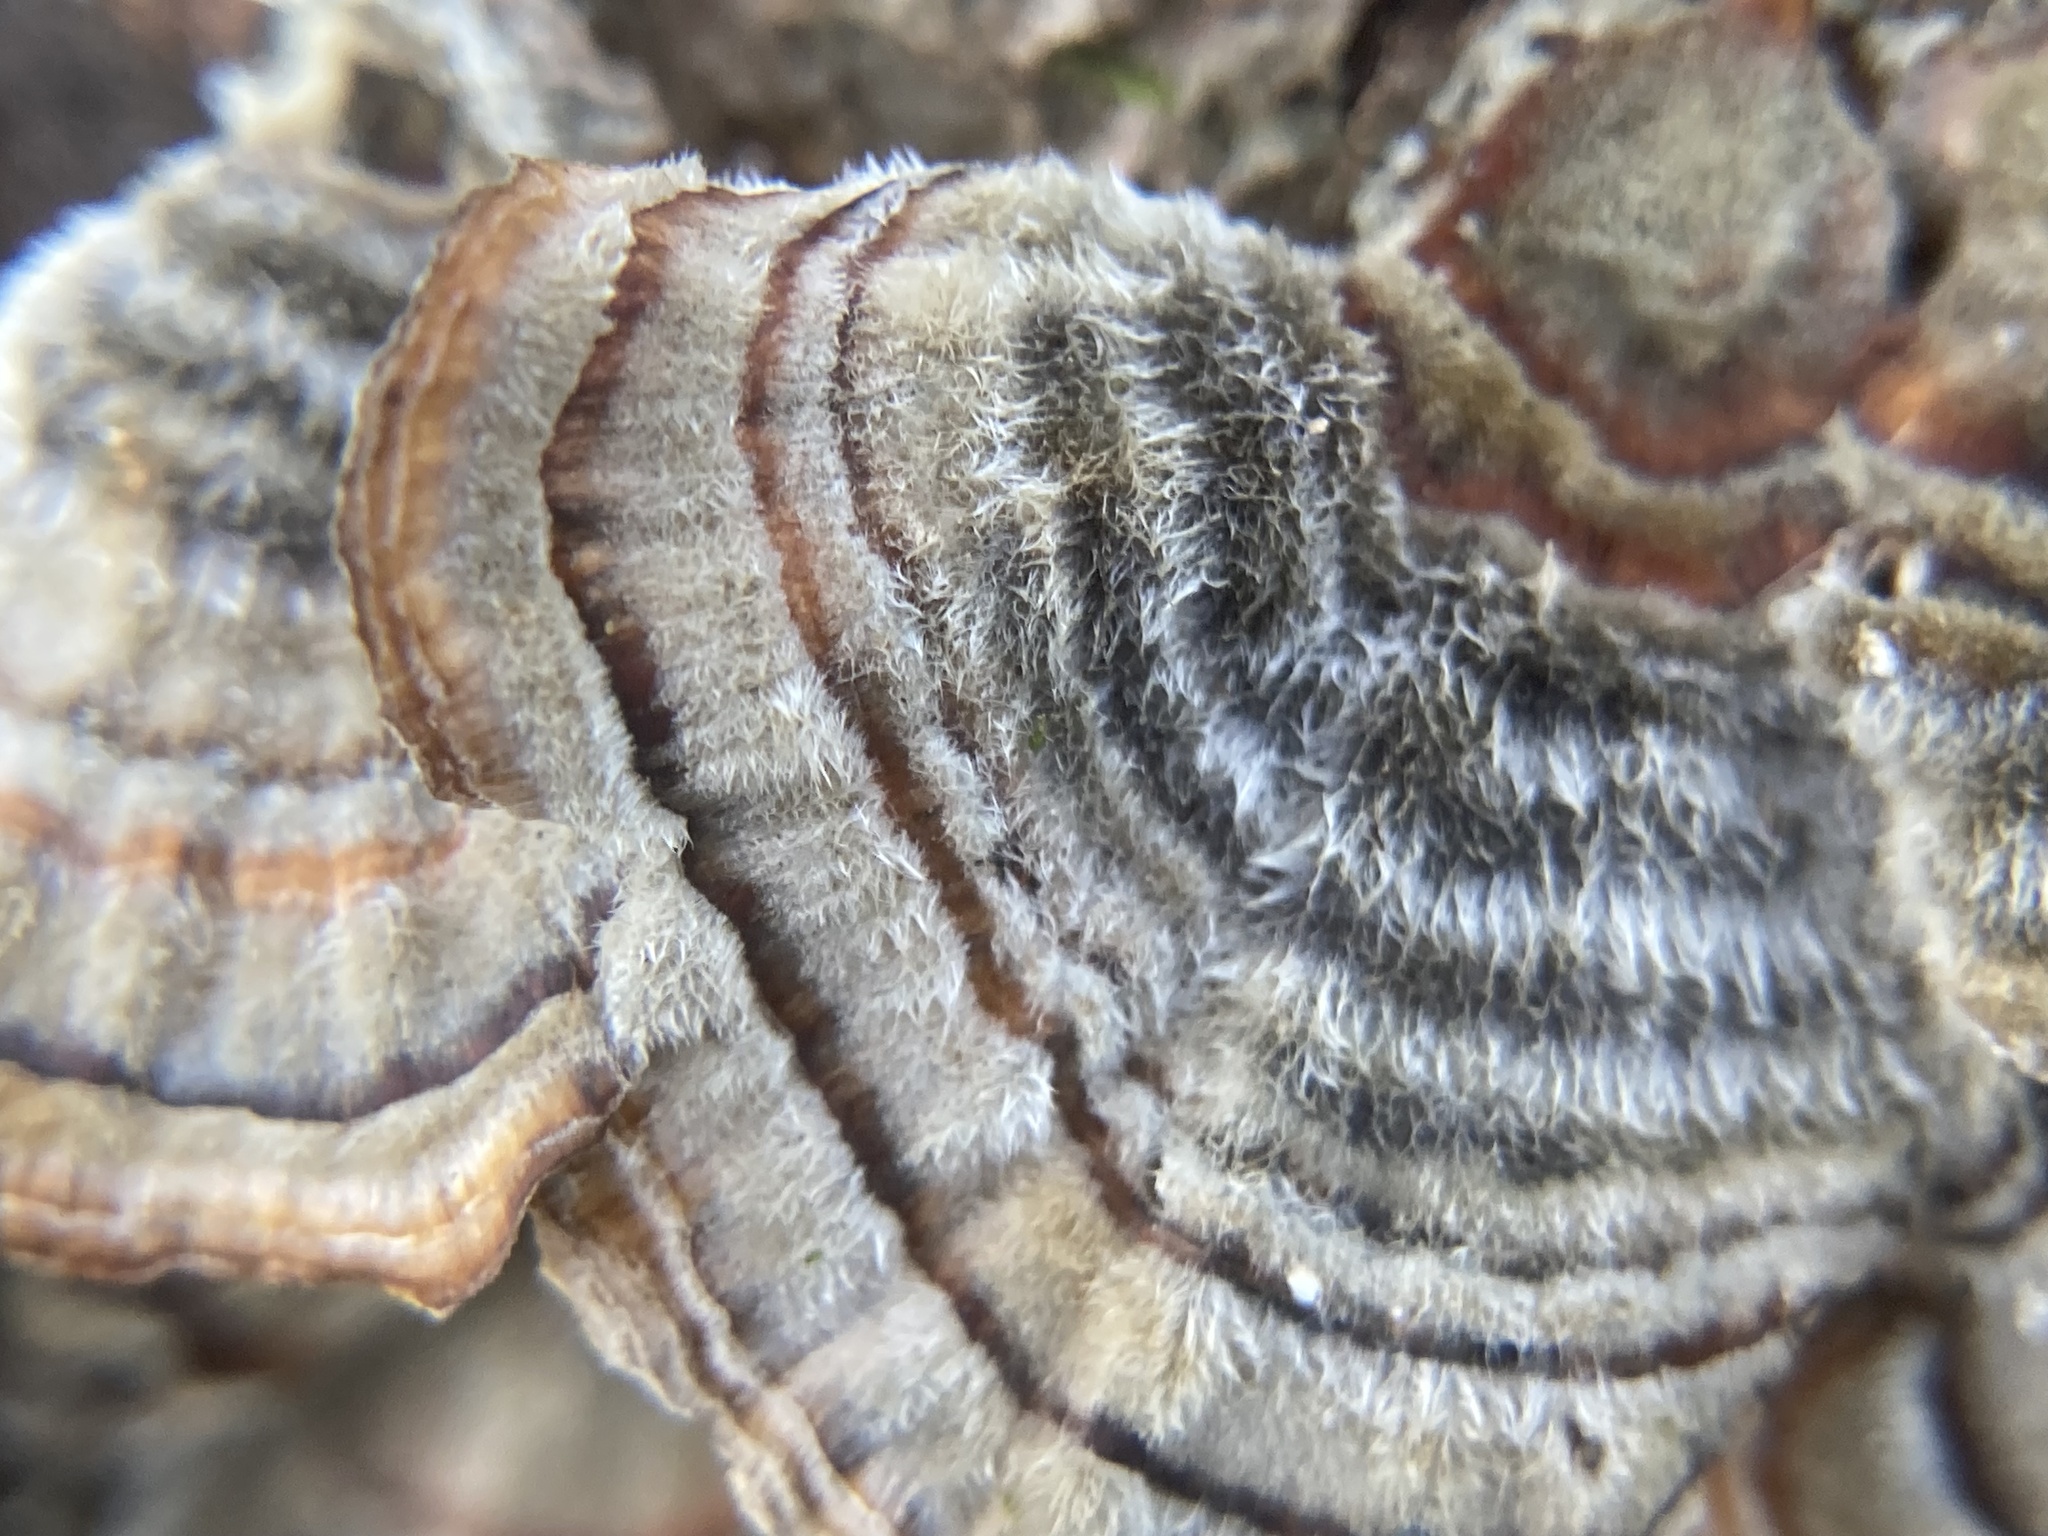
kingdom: Fungi
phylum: Basidiomycota
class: Agaricomycetes
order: Polyporales
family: Polyporaceae
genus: Trametes
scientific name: Trametes versicolor
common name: Turkeytail
